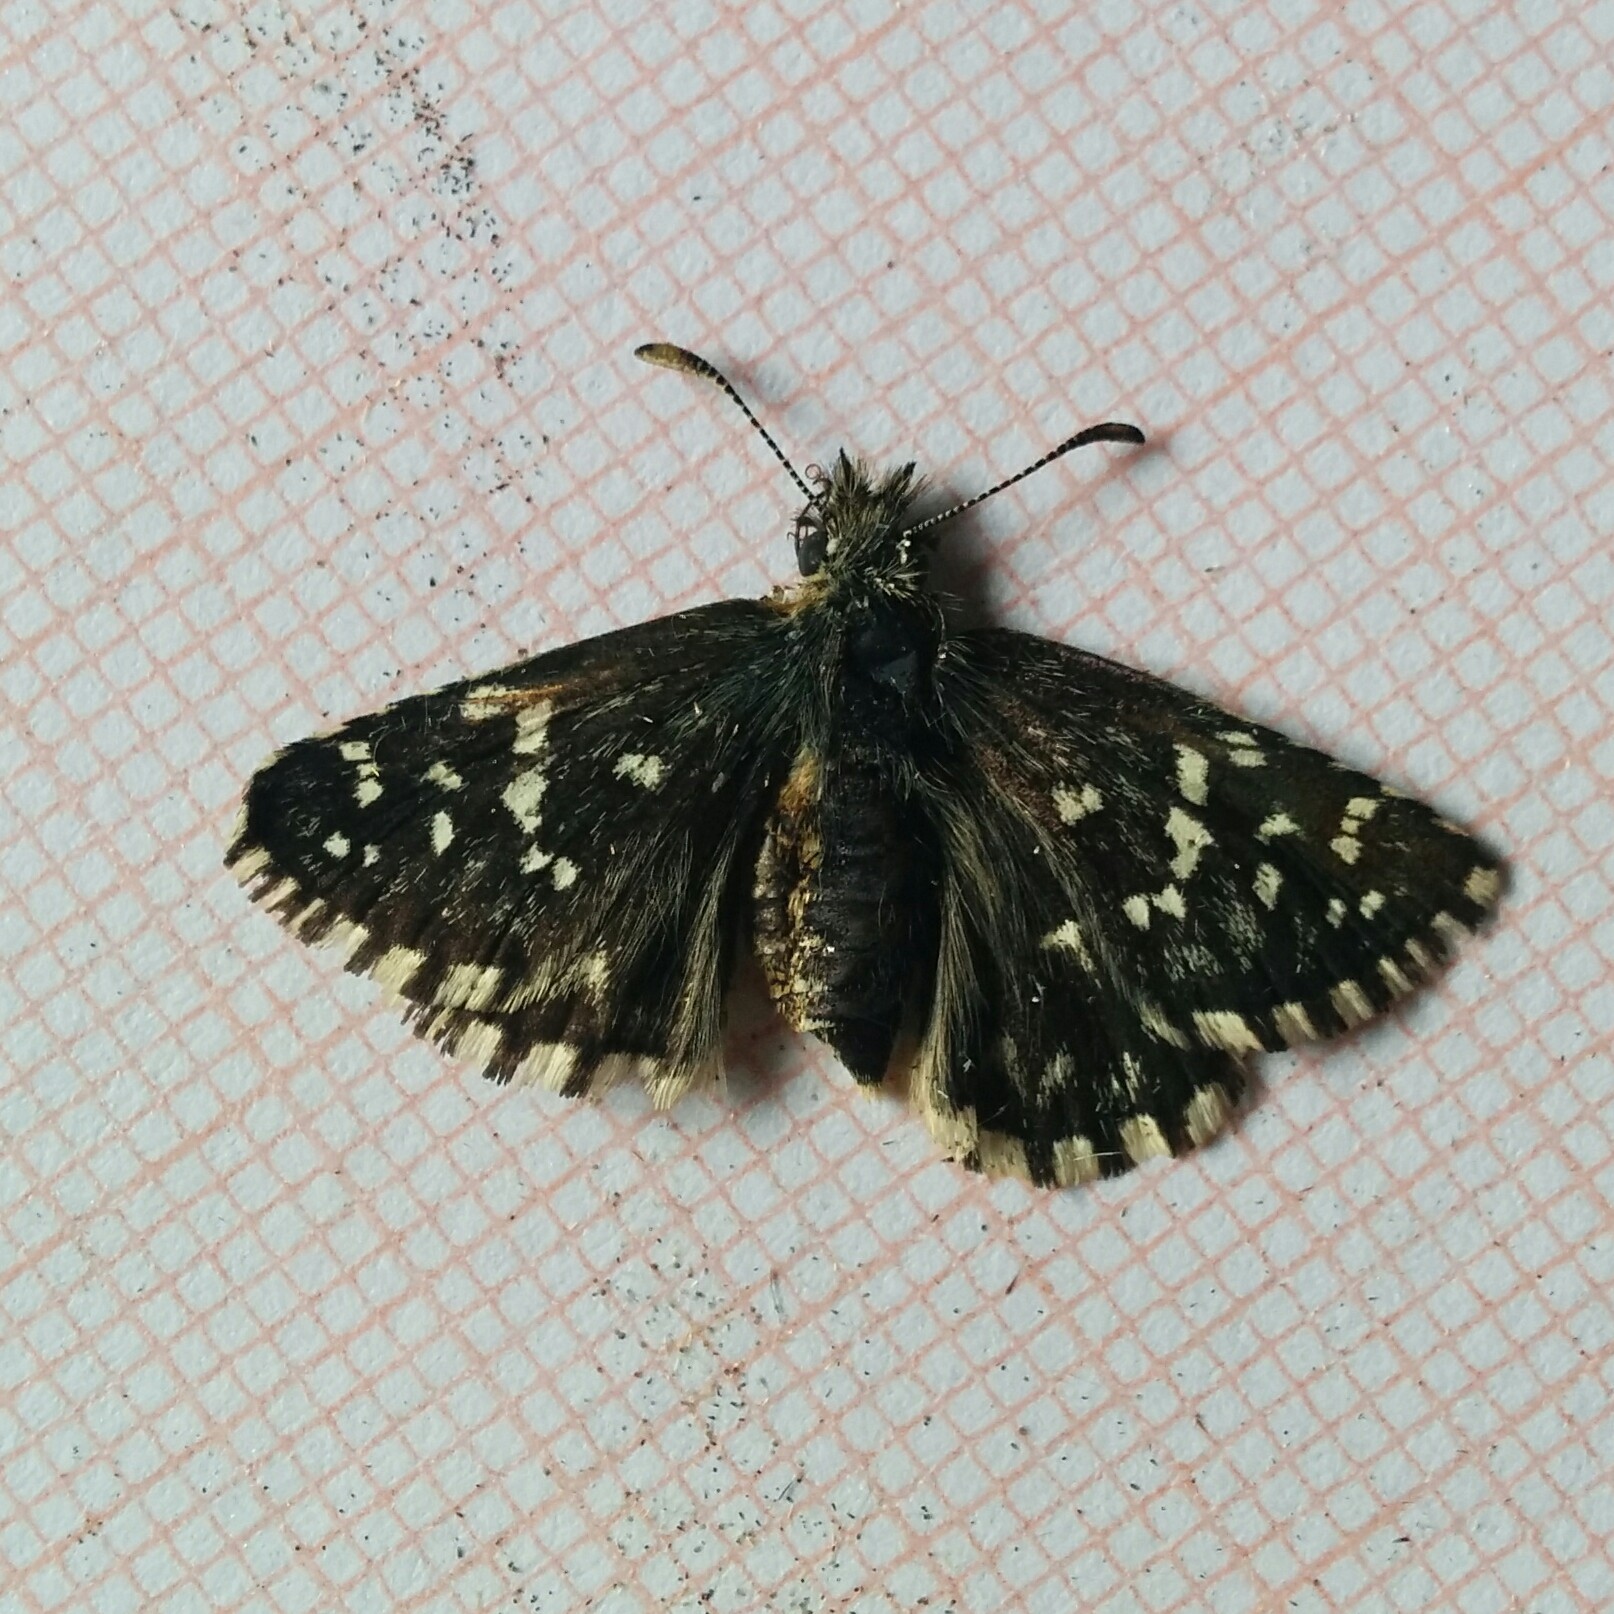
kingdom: Animalia
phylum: Arthropoda
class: Insecta
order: Lepidoptera
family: Hesperiidae
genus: Pyrgus
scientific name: Pyrgus malvoides
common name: Southern grizzled skipper
